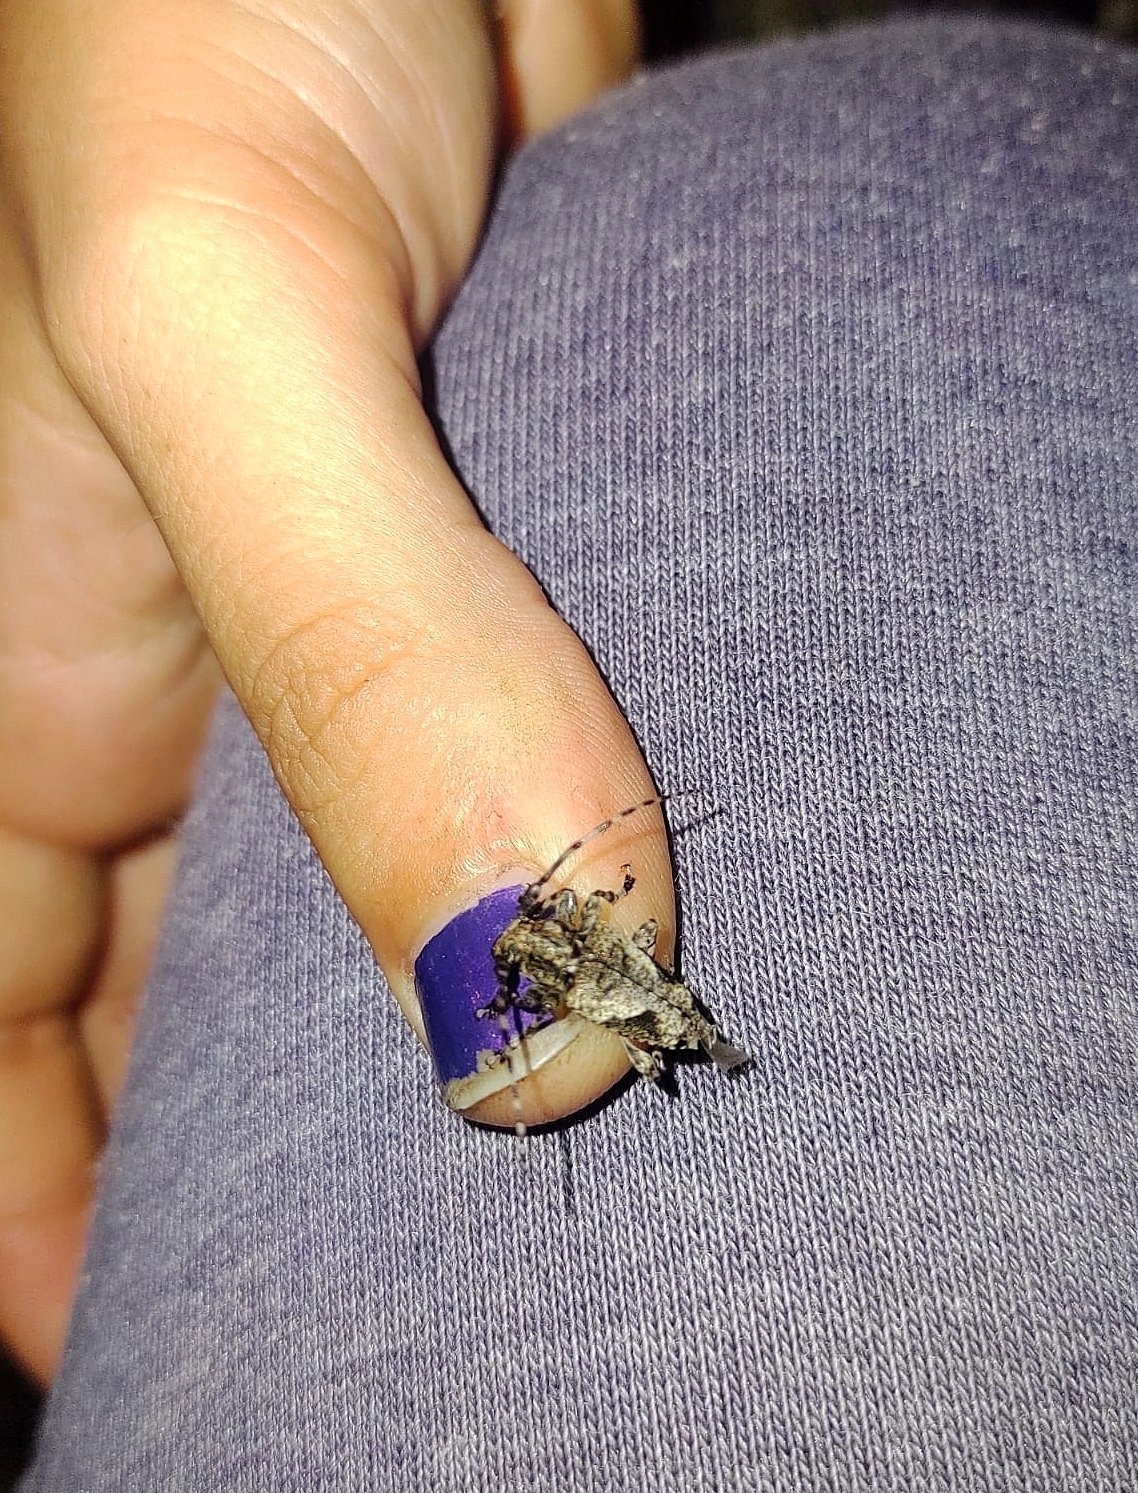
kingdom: Animalia
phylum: Arthropoda
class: Insecta
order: Coleoptera
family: Cerambycidae
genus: Psapharochrus
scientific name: Psapharochrus jaspideus
